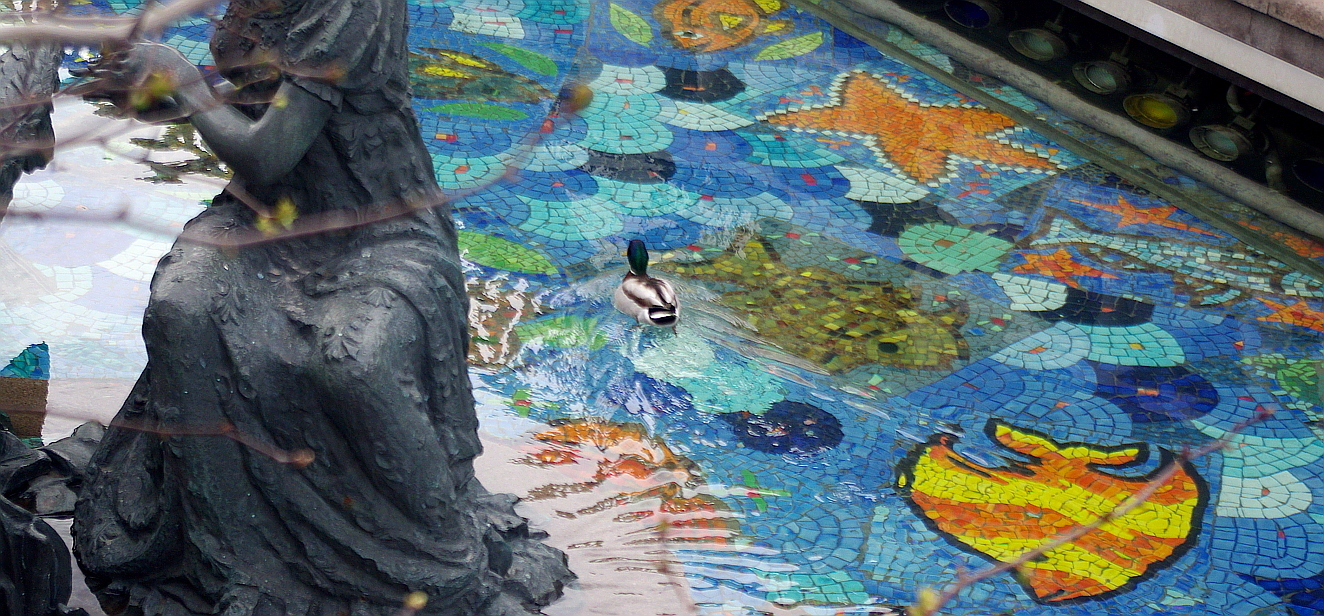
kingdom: Animalia
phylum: Chordata
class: Aves
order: Anseriformes
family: Anatidae
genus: Anas
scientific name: Anas platyrhynchos
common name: Mallard
